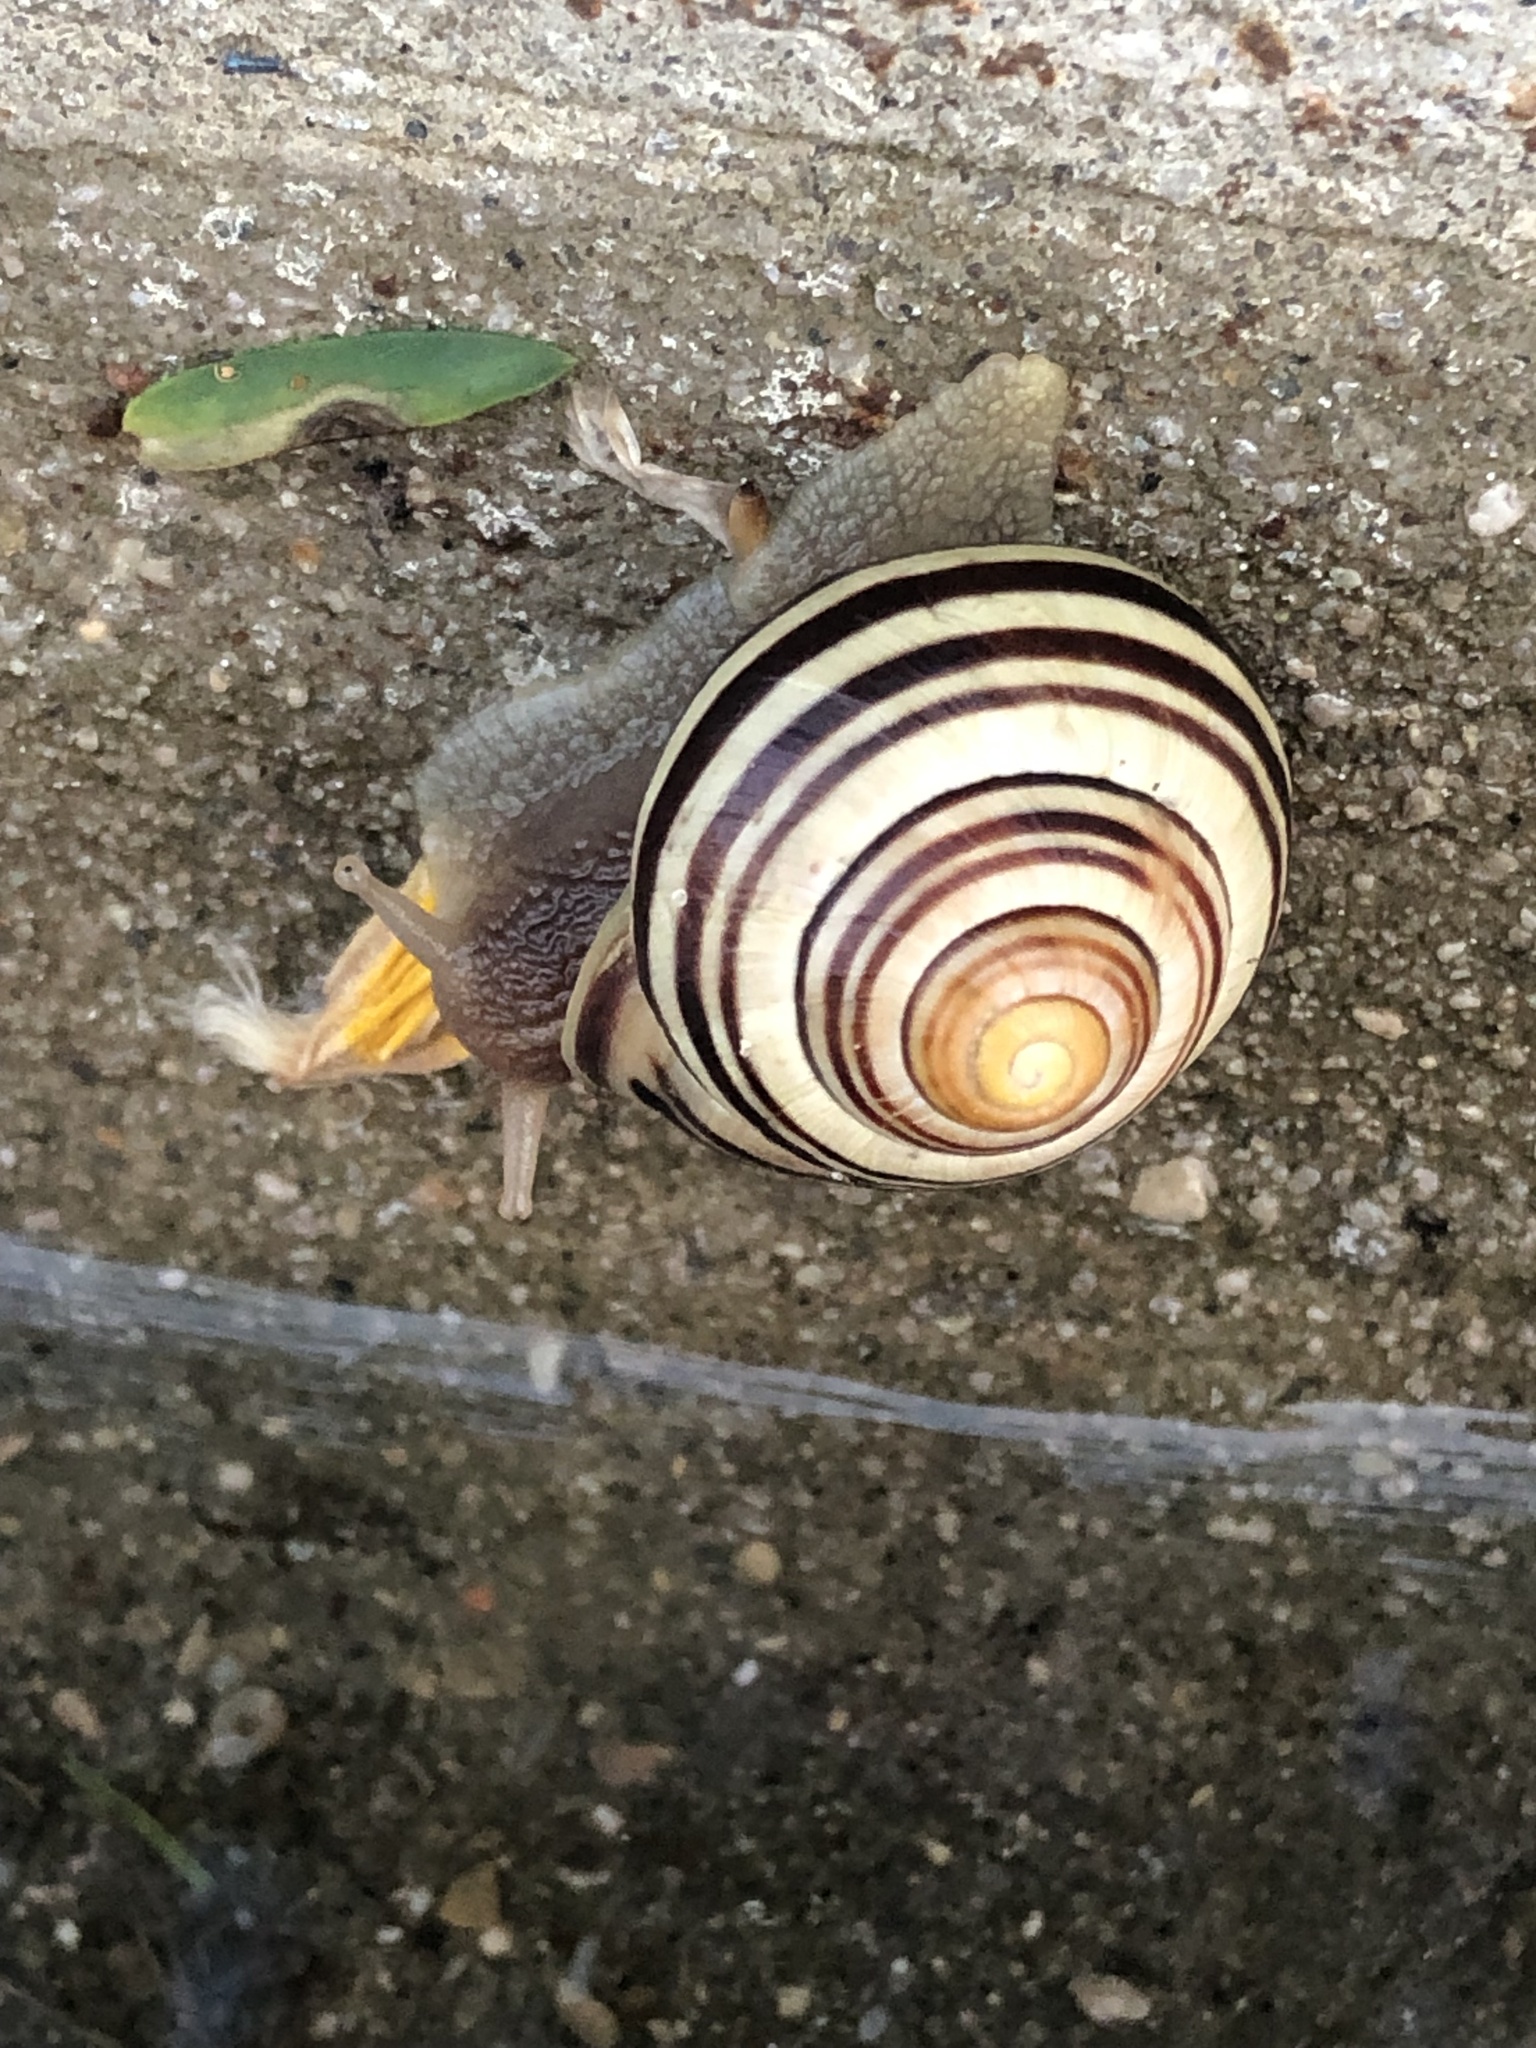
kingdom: Animalia
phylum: Mollusca
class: Gastropoda
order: Stylommatophora
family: Helicidae
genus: Cepaea
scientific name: Cepaea nemoralis
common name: Grovesnail
